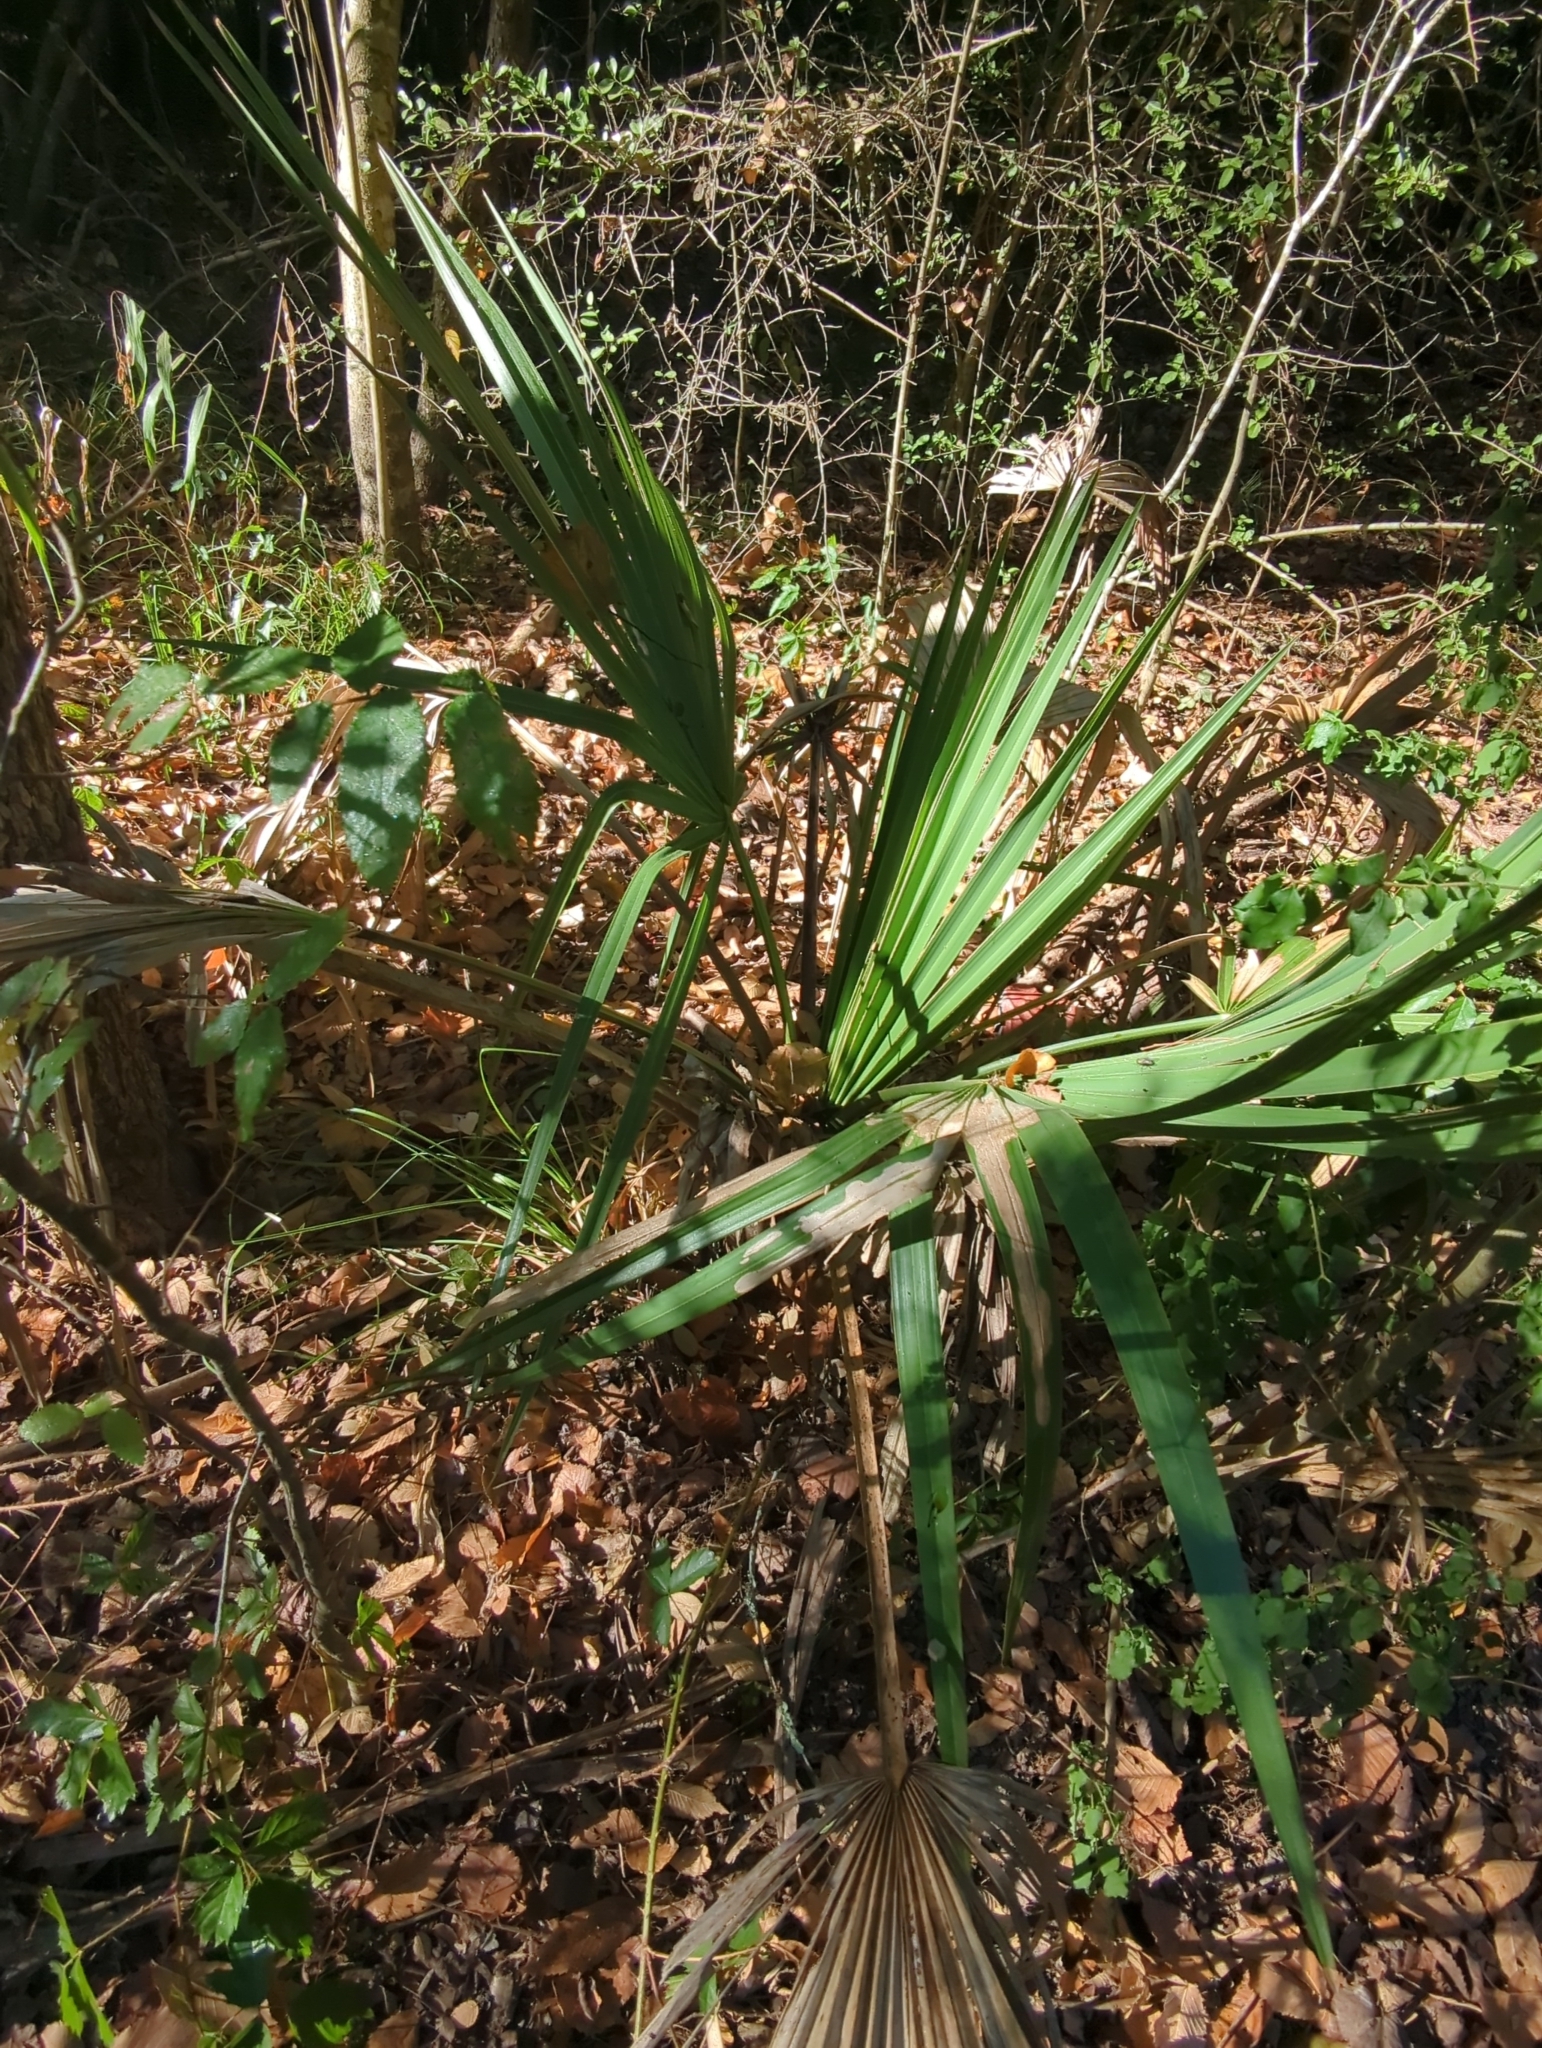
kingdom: Plantae
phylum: Tracheophyta
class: Liliopsida
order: Arecales
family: Arecaceae
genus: Sabal
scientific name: Sabal minor
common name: Dwarf palmetto
